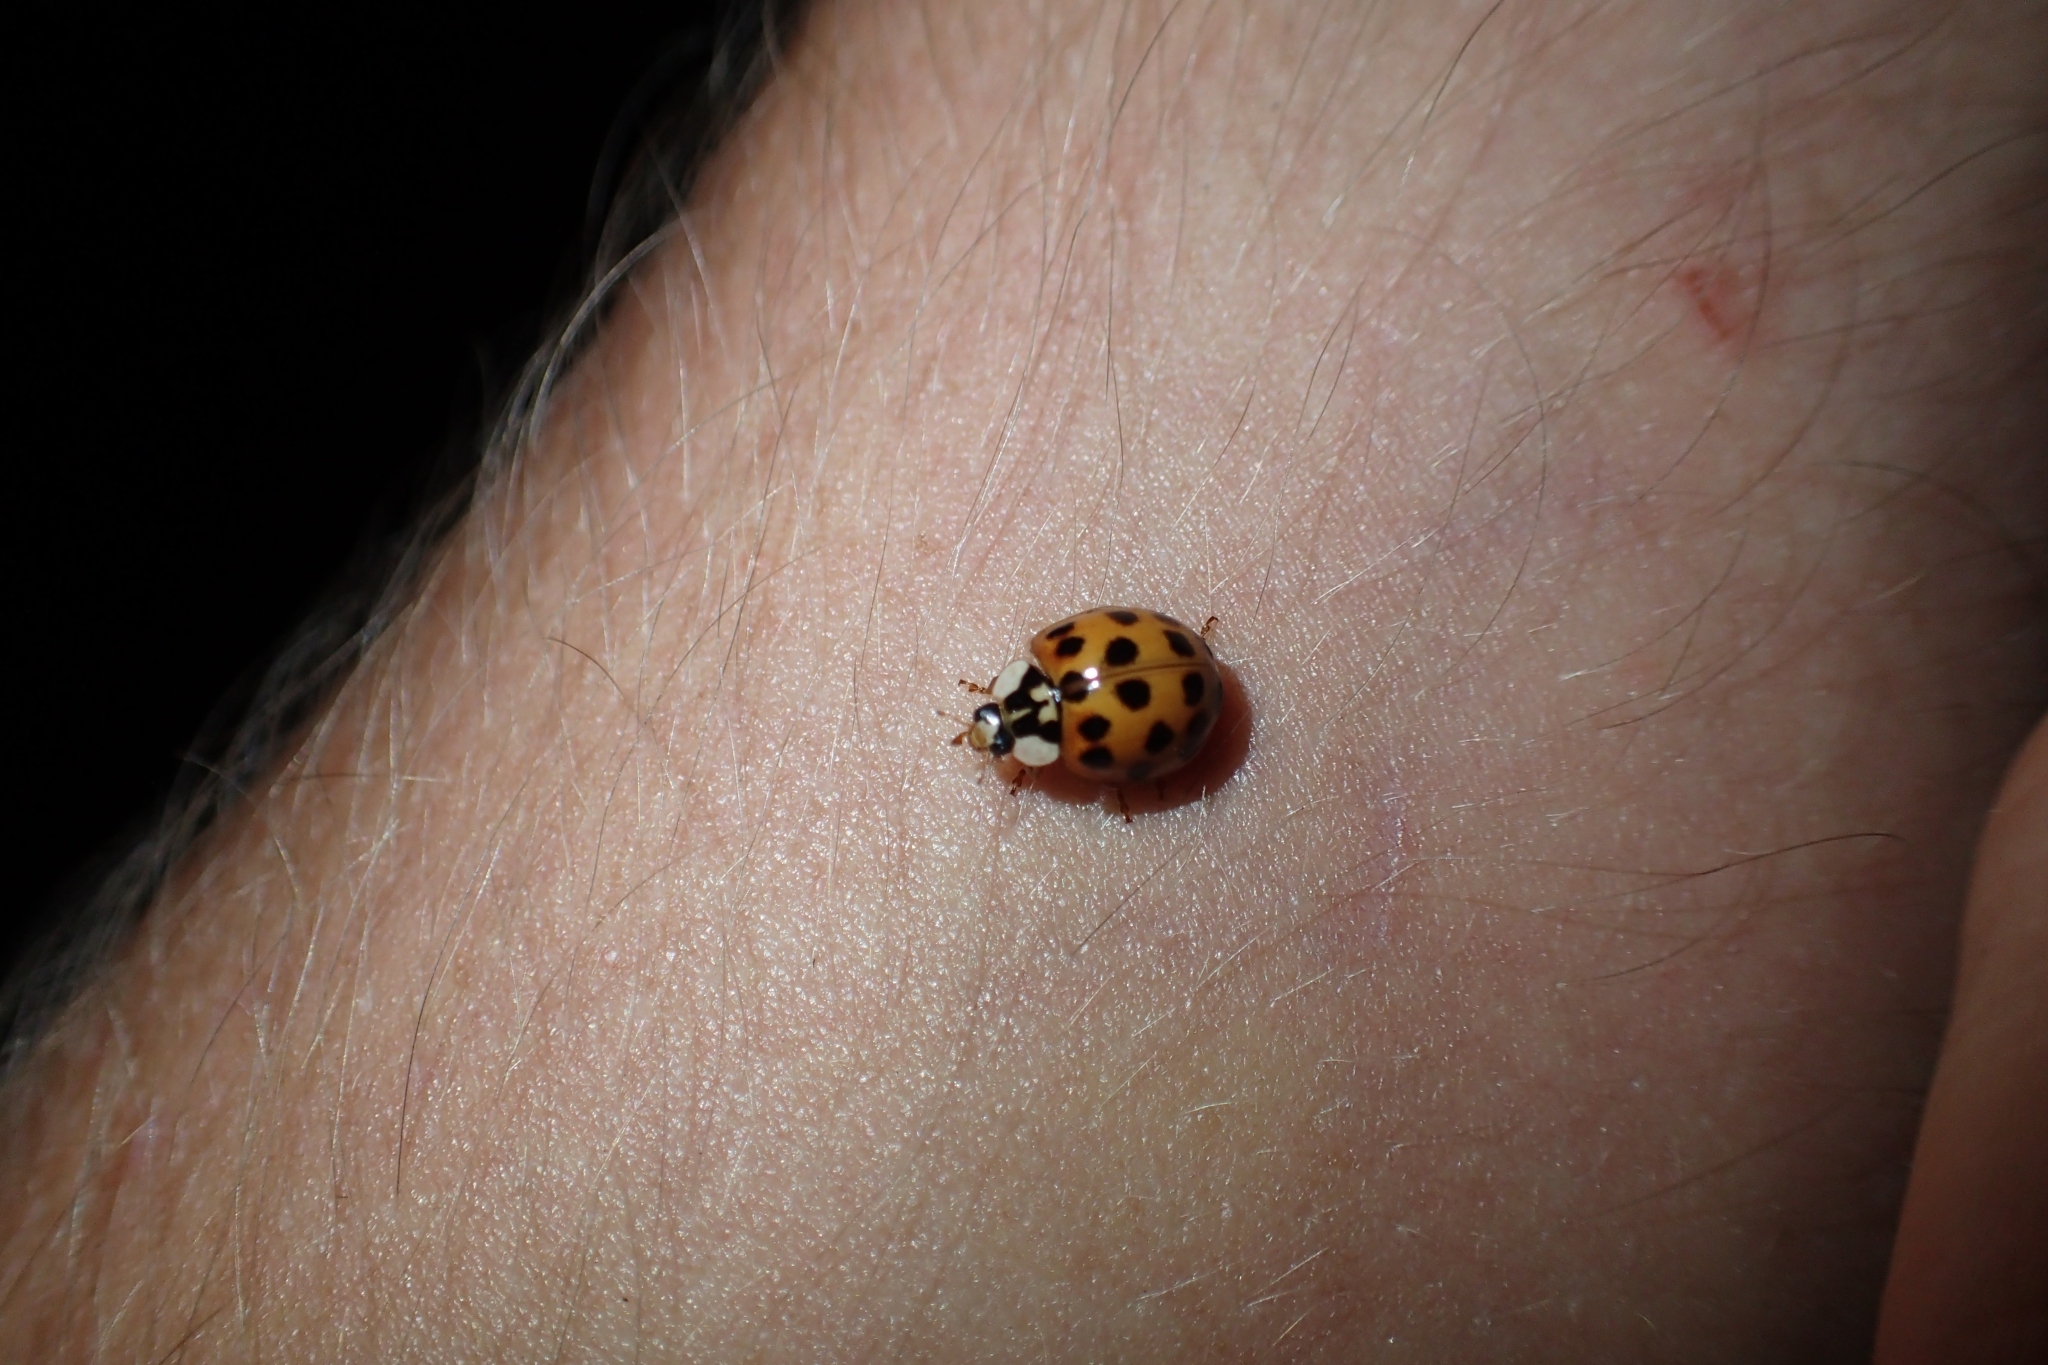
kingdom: Animalia
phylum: Arthropoda
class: Insecta
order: Coleoptera
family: Coccinellidae
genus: Harmonia
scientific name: Harmonia axyridis
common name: Harlequin ladybird
